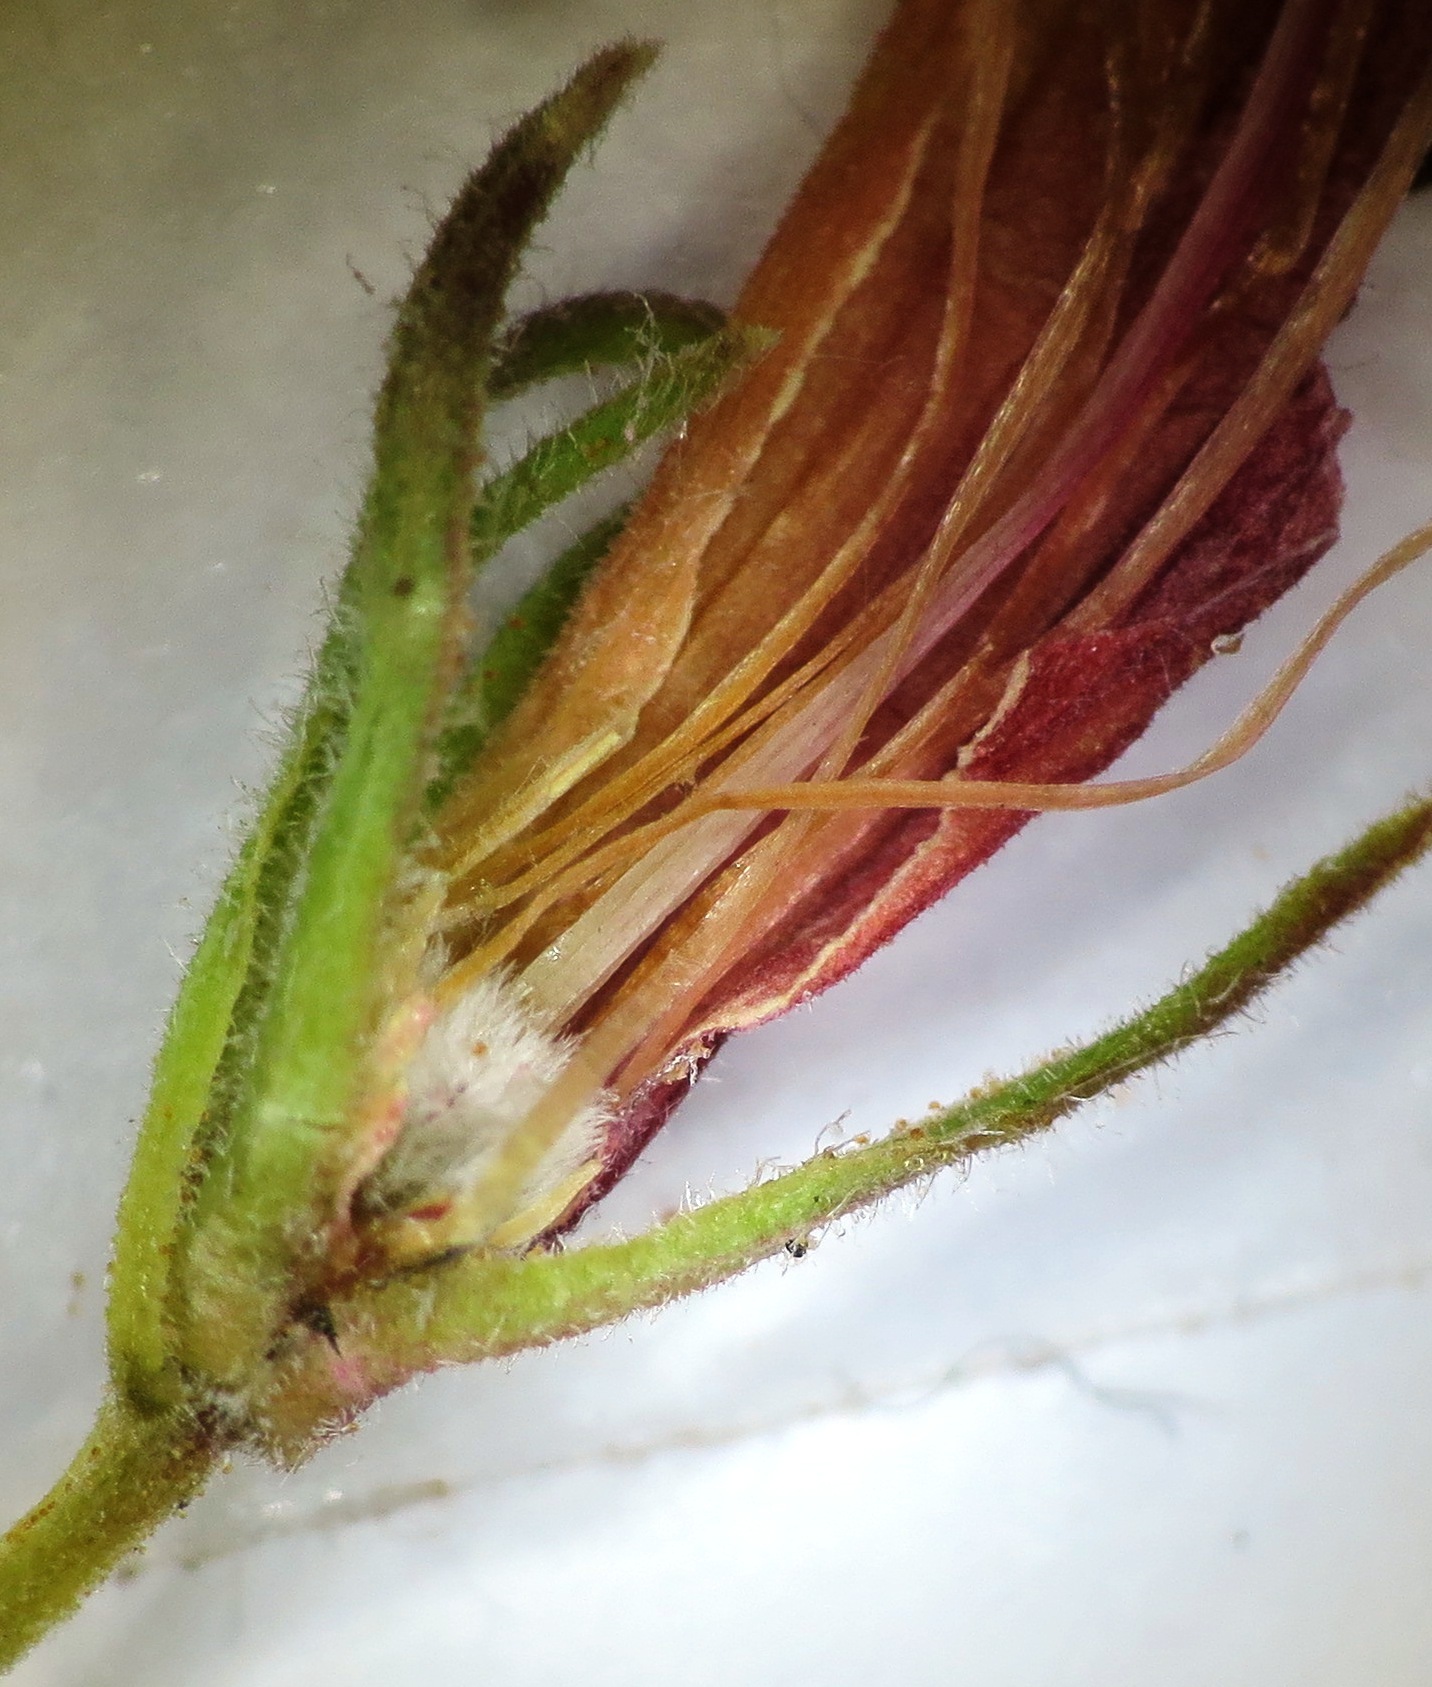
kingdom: Plantae
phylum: Tracheophyta
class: Magnoliopsida
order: Ericales
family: Ericaceae
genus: Erica
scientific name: Erica viscaria
